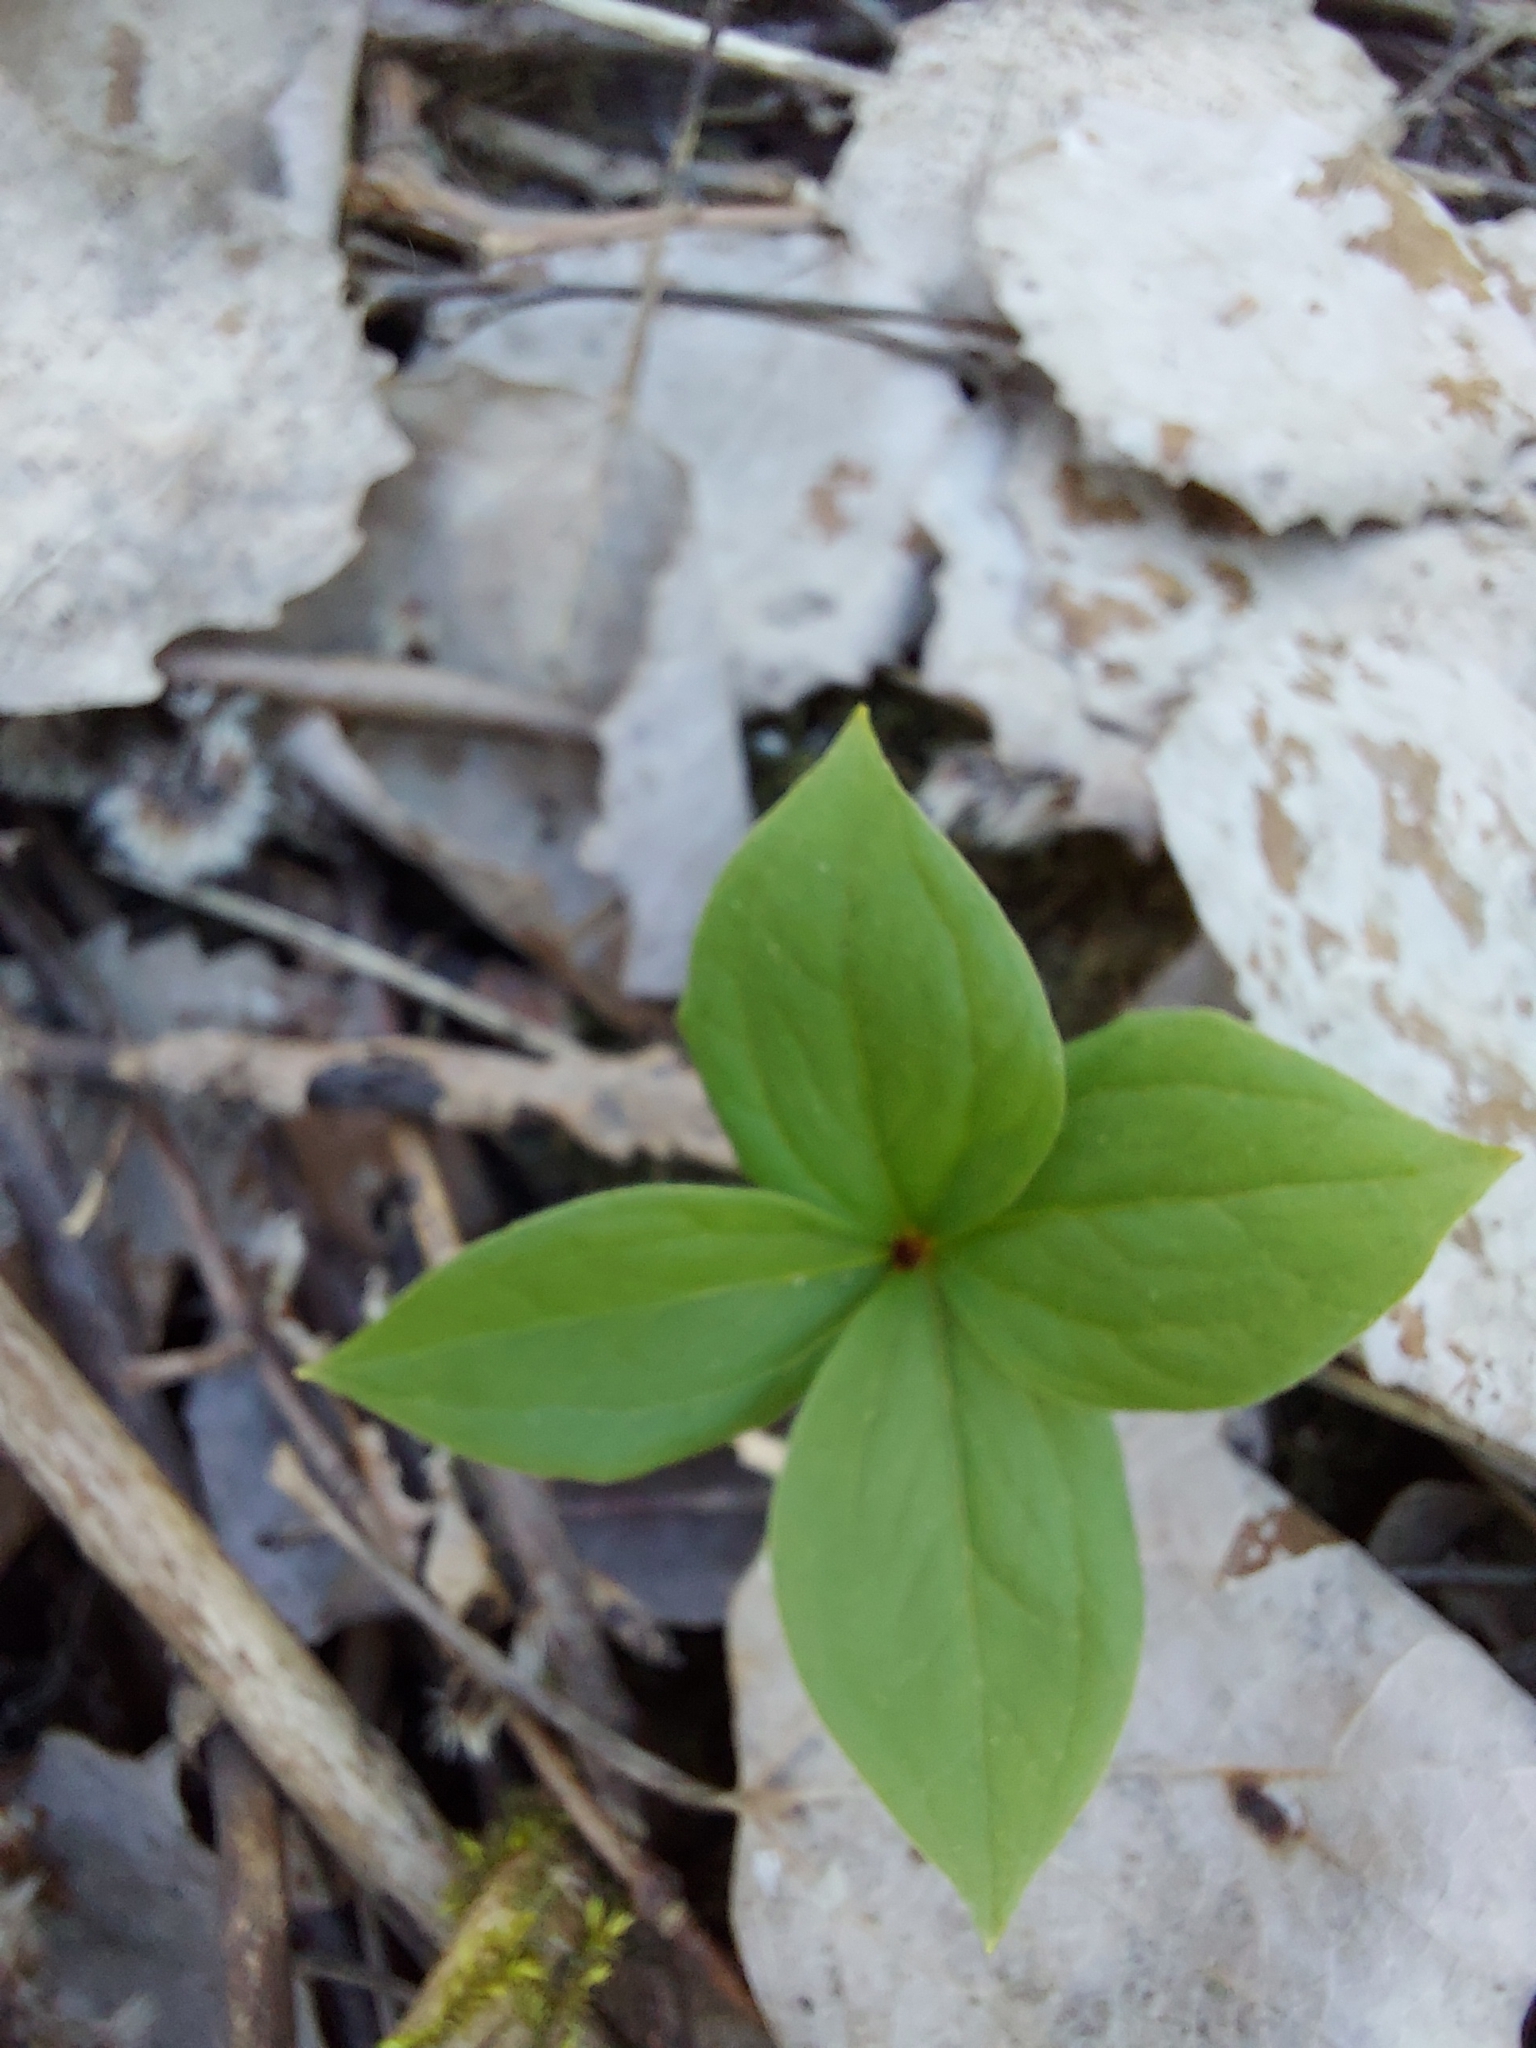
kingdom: Plantae
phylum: Tracheophyta
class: Liliopsida
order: Liliales
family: Melanthiaceae
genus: Paris
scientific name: Paris quadrifolia
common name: Herb-paris
